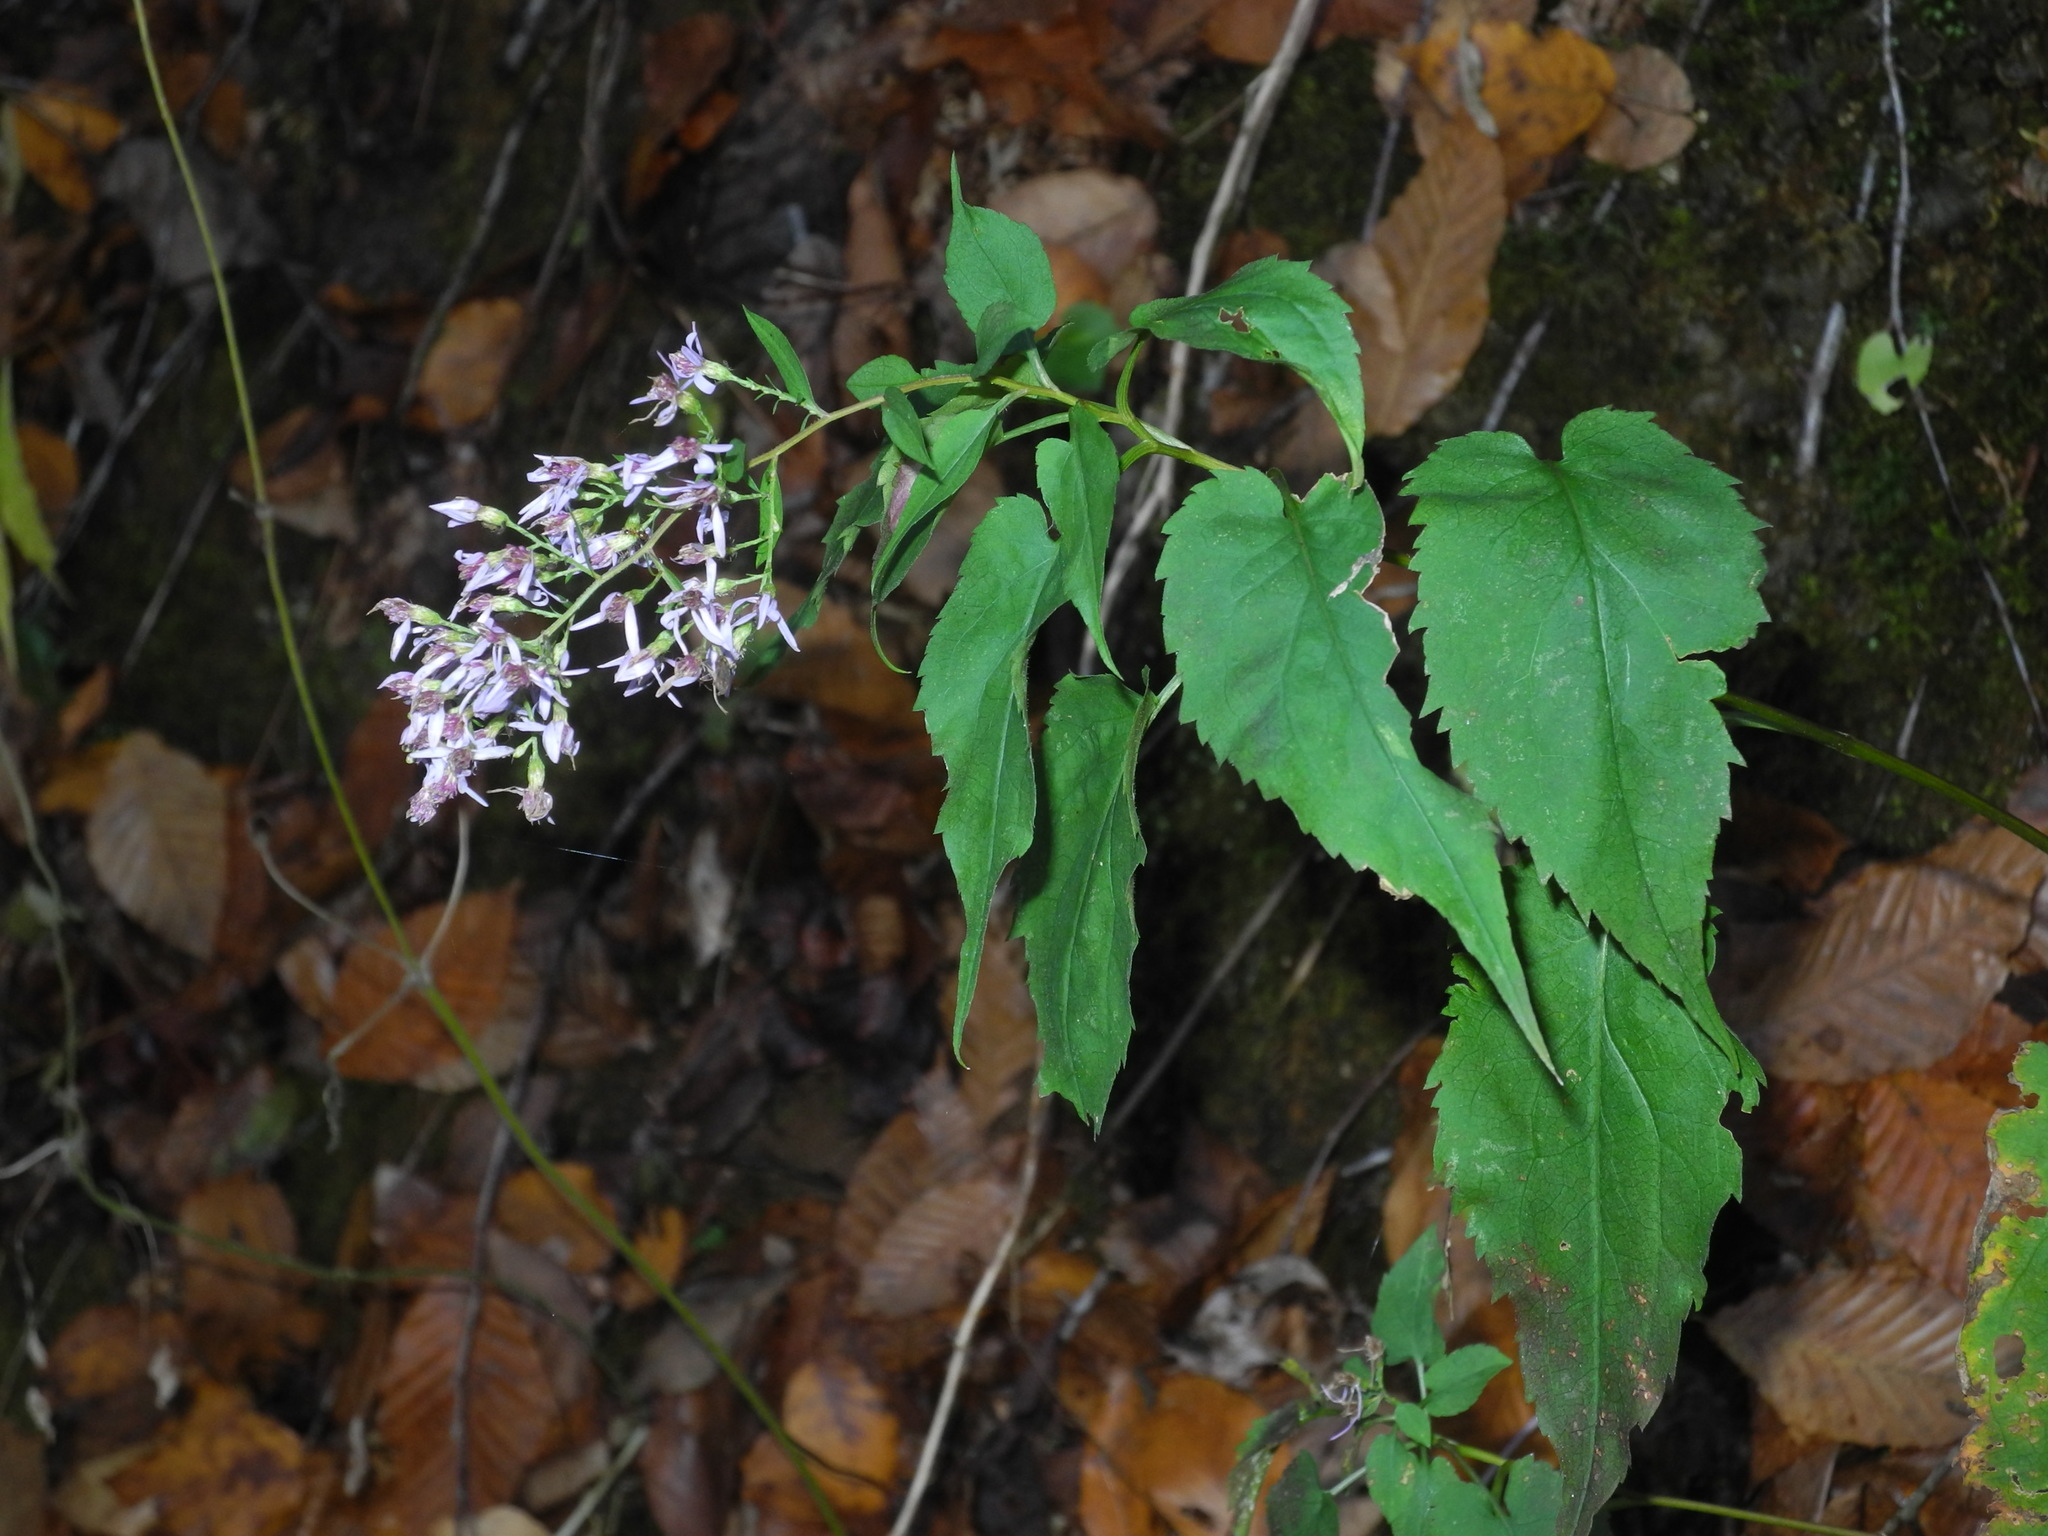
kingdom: Plantae
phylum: Tracheophyta
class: Magnoliopsida
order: Asterales
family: Asteraceae
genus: Symphyotrichum
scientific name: Symphyotrichum cordifolium
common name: Beeweed
